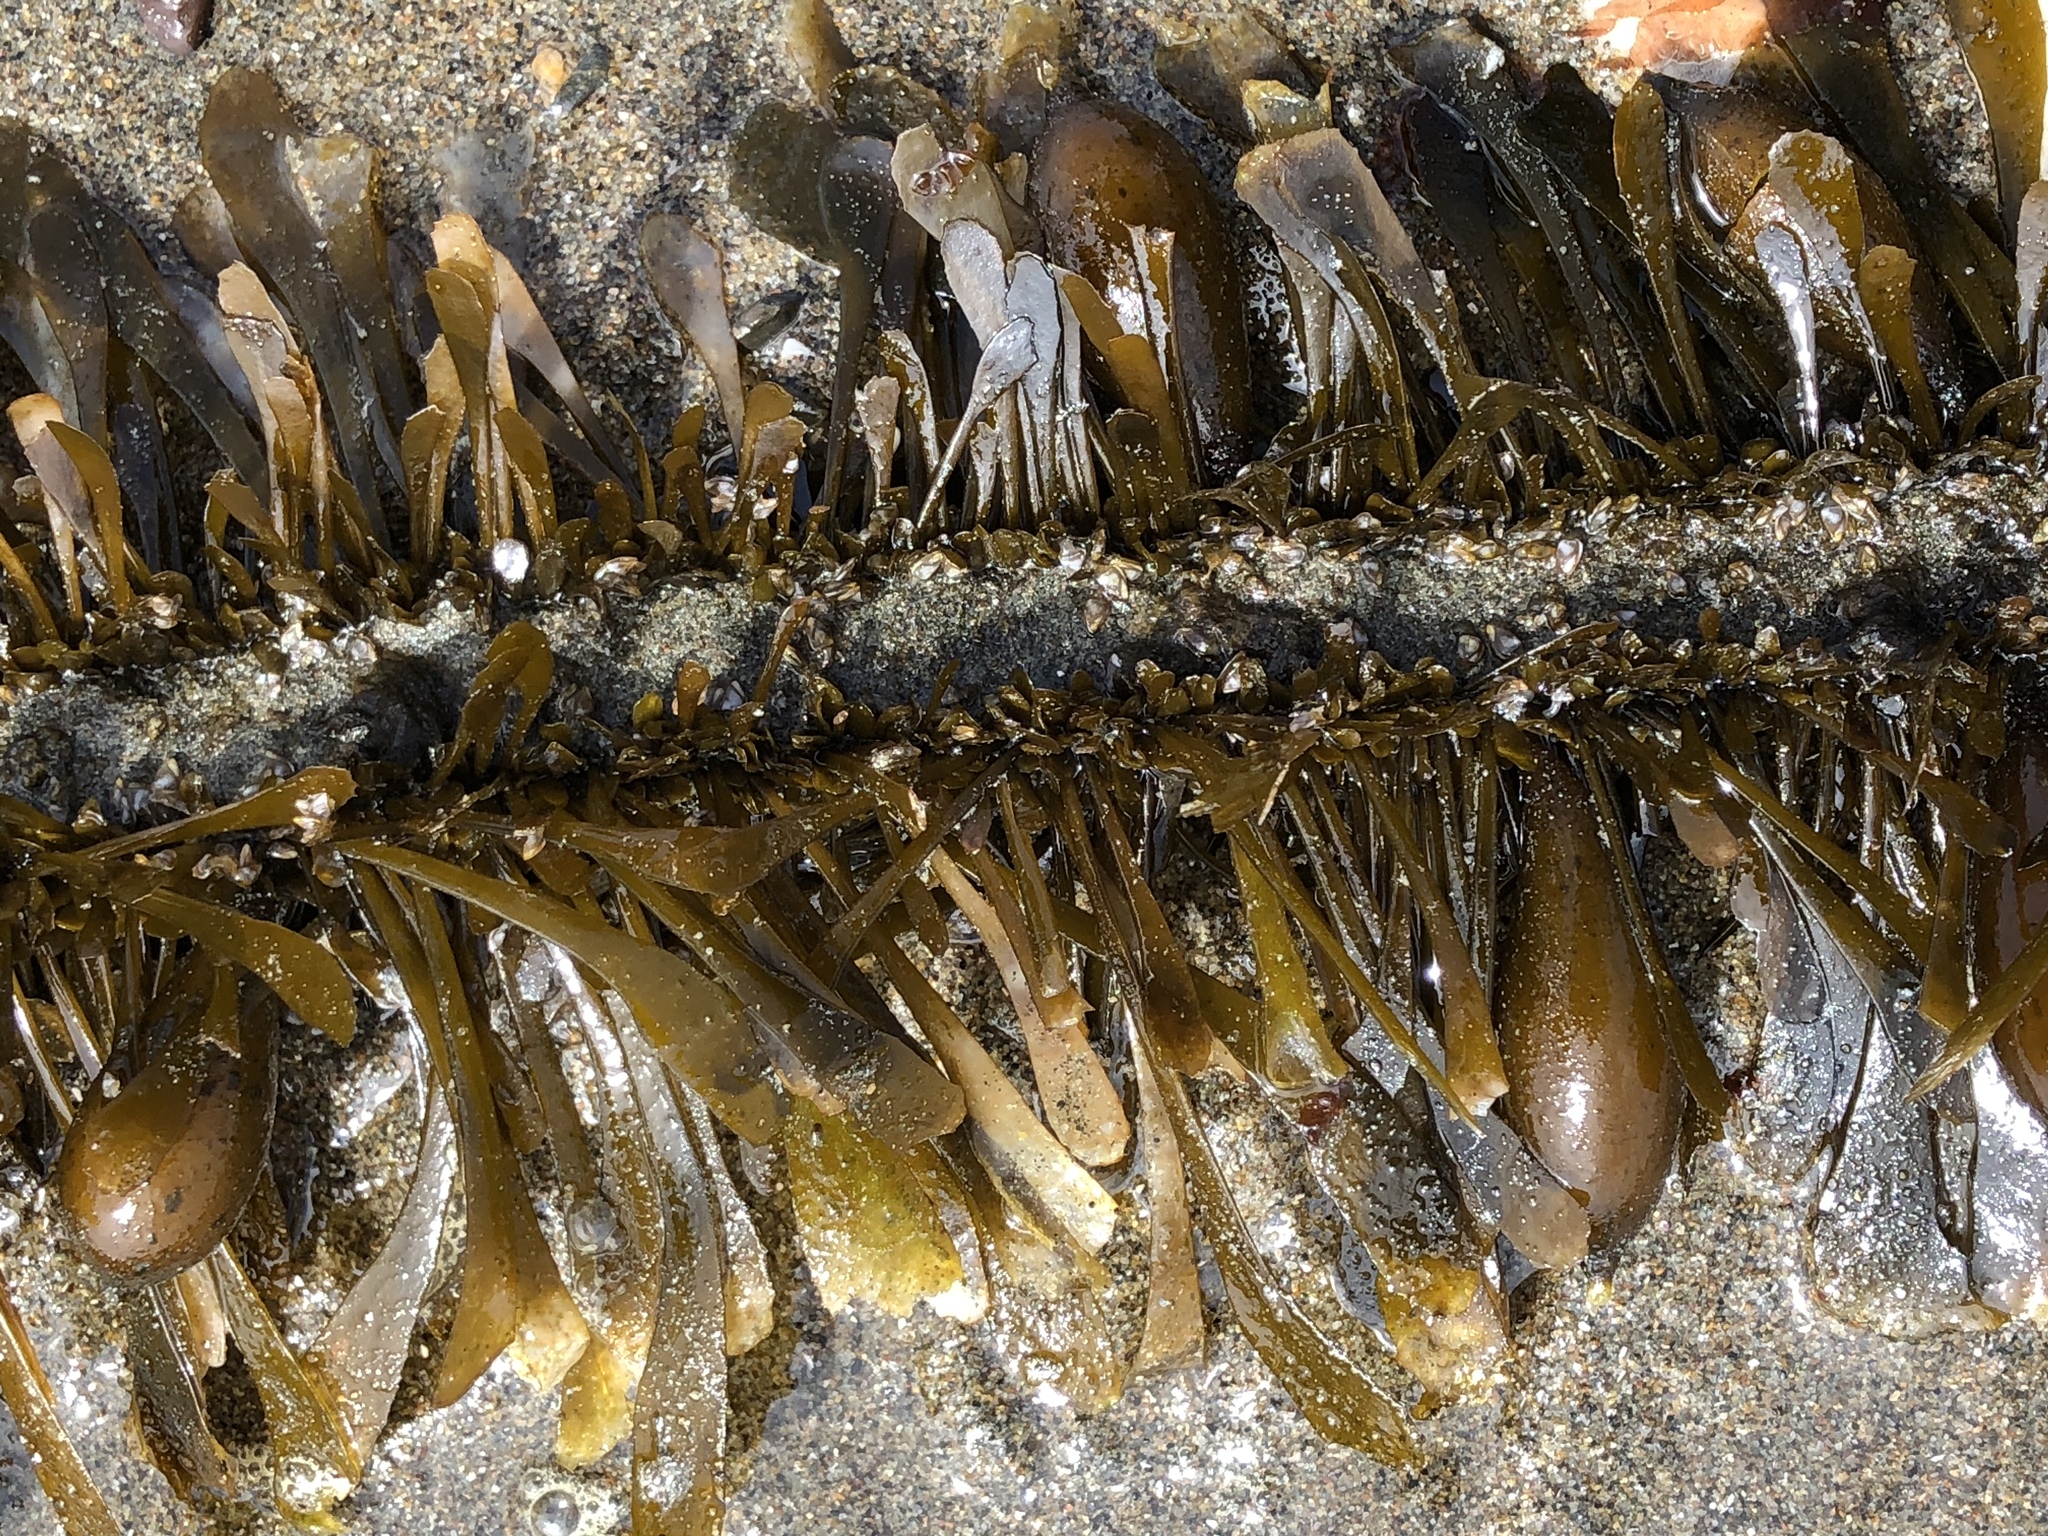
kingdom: Chromista
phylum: Ochrophyta
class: Phaeophyceae
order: Laminariales
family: Lessoniaceae
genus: Egregia
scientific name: Egregia menziesii
